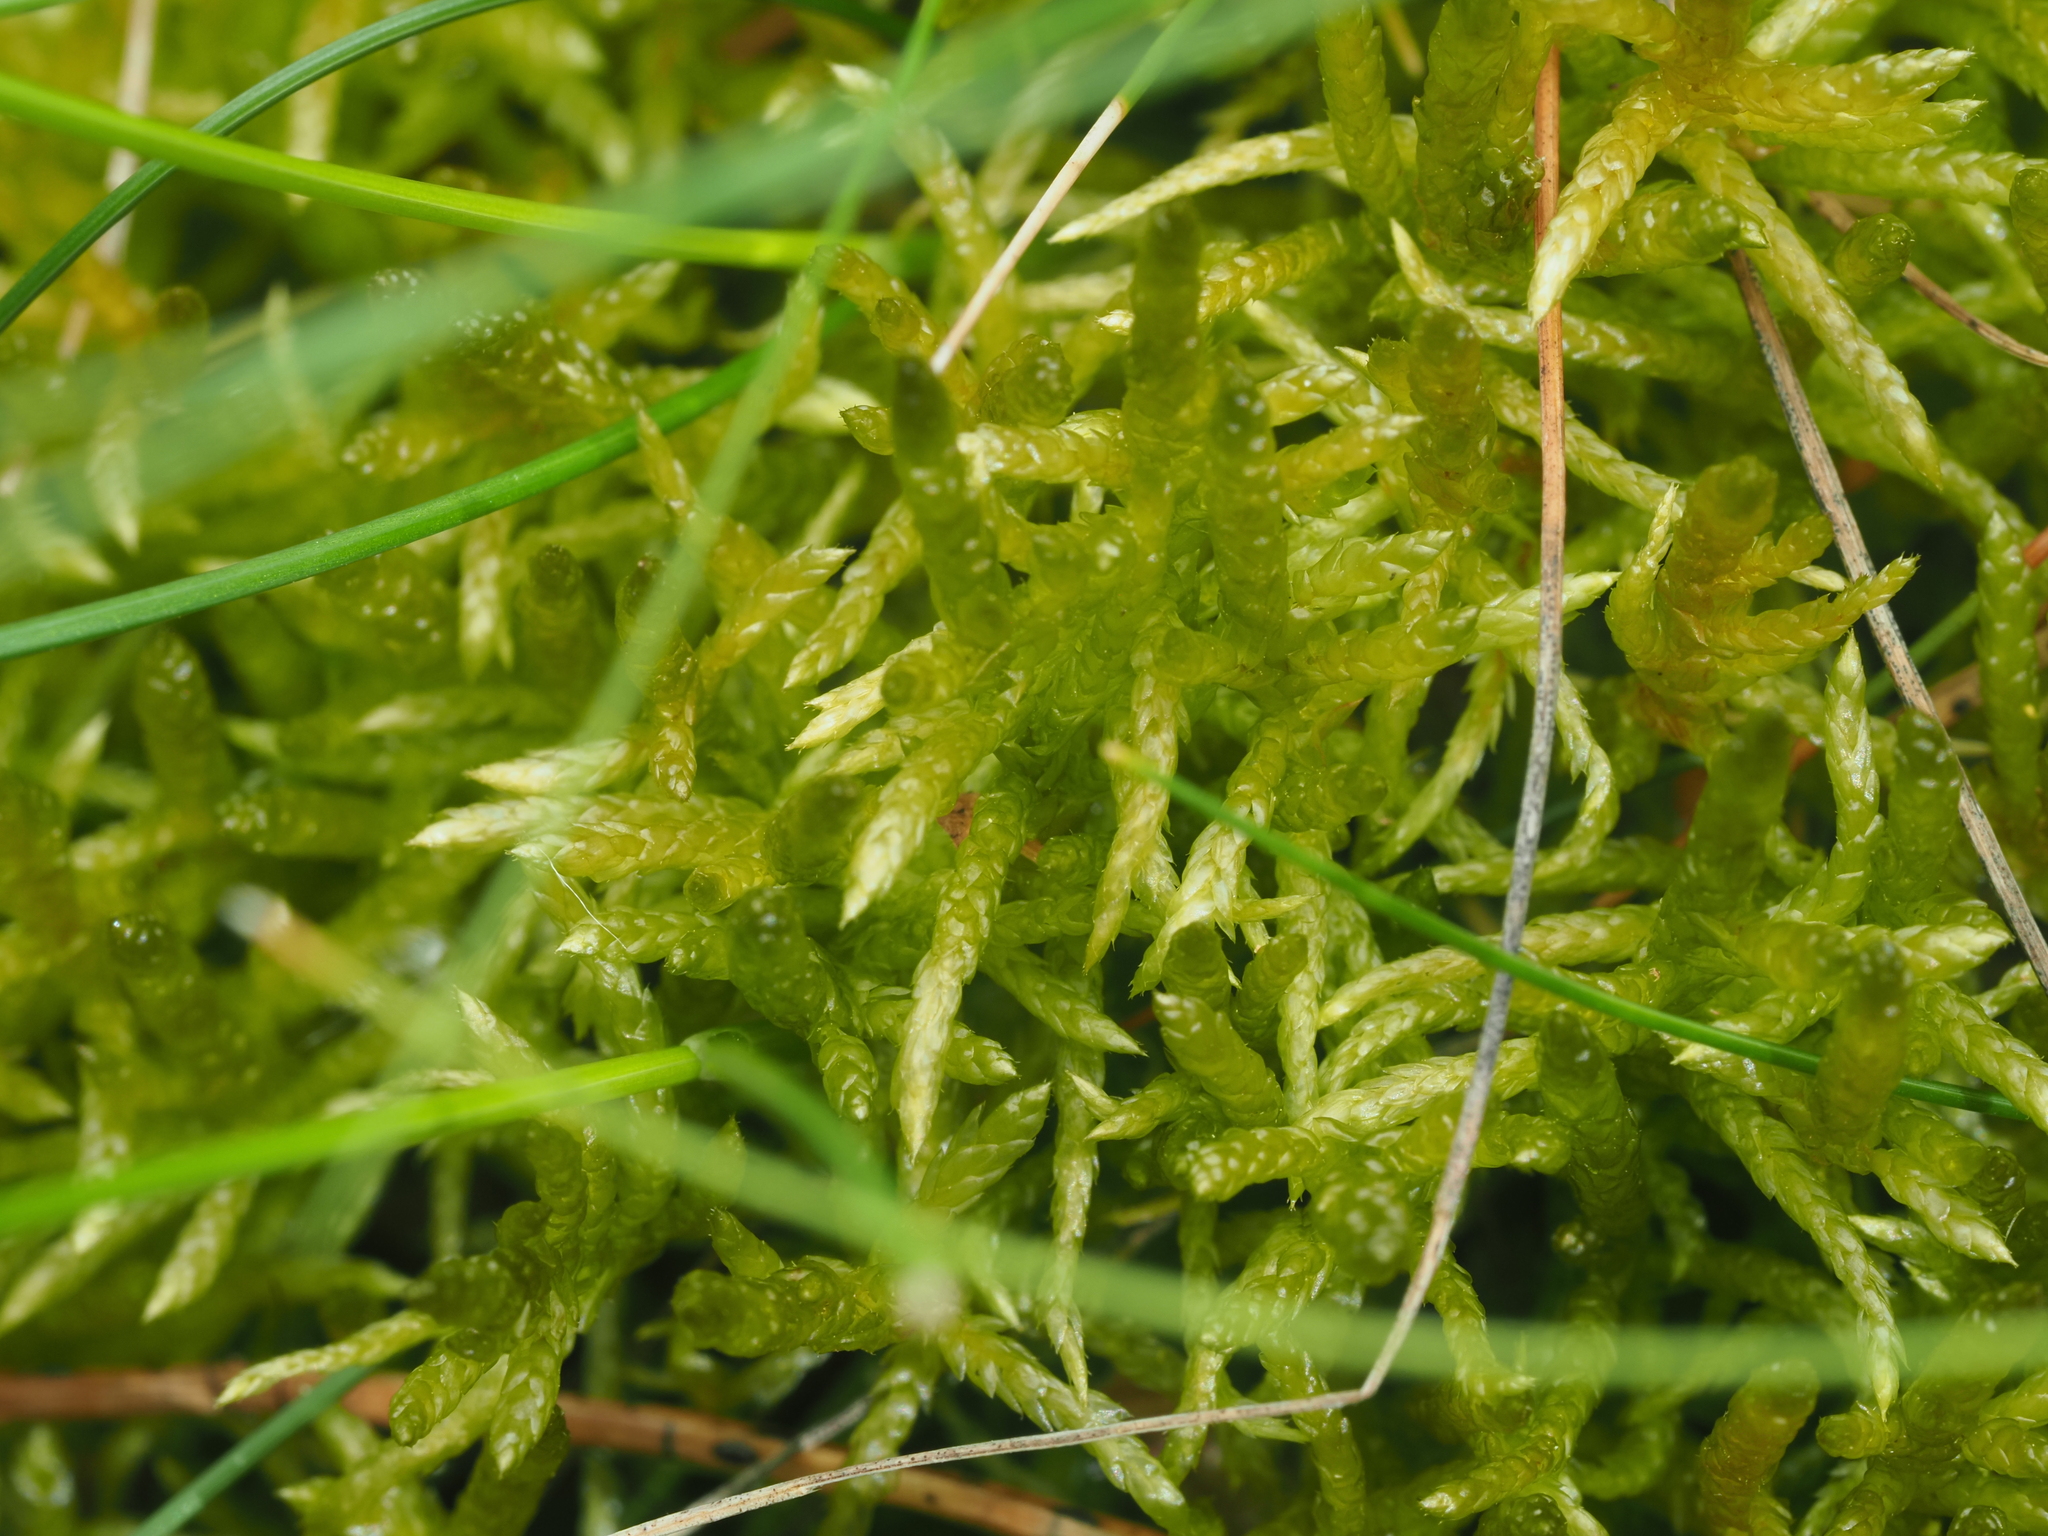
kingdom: Plantae
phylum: Bryophyta
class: Bryopsida
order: Hypnales
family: Brachytheciaceae
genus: Pseudoscleropodium
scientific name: Pseudoscleropodium purum
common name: Neat feather-moss
